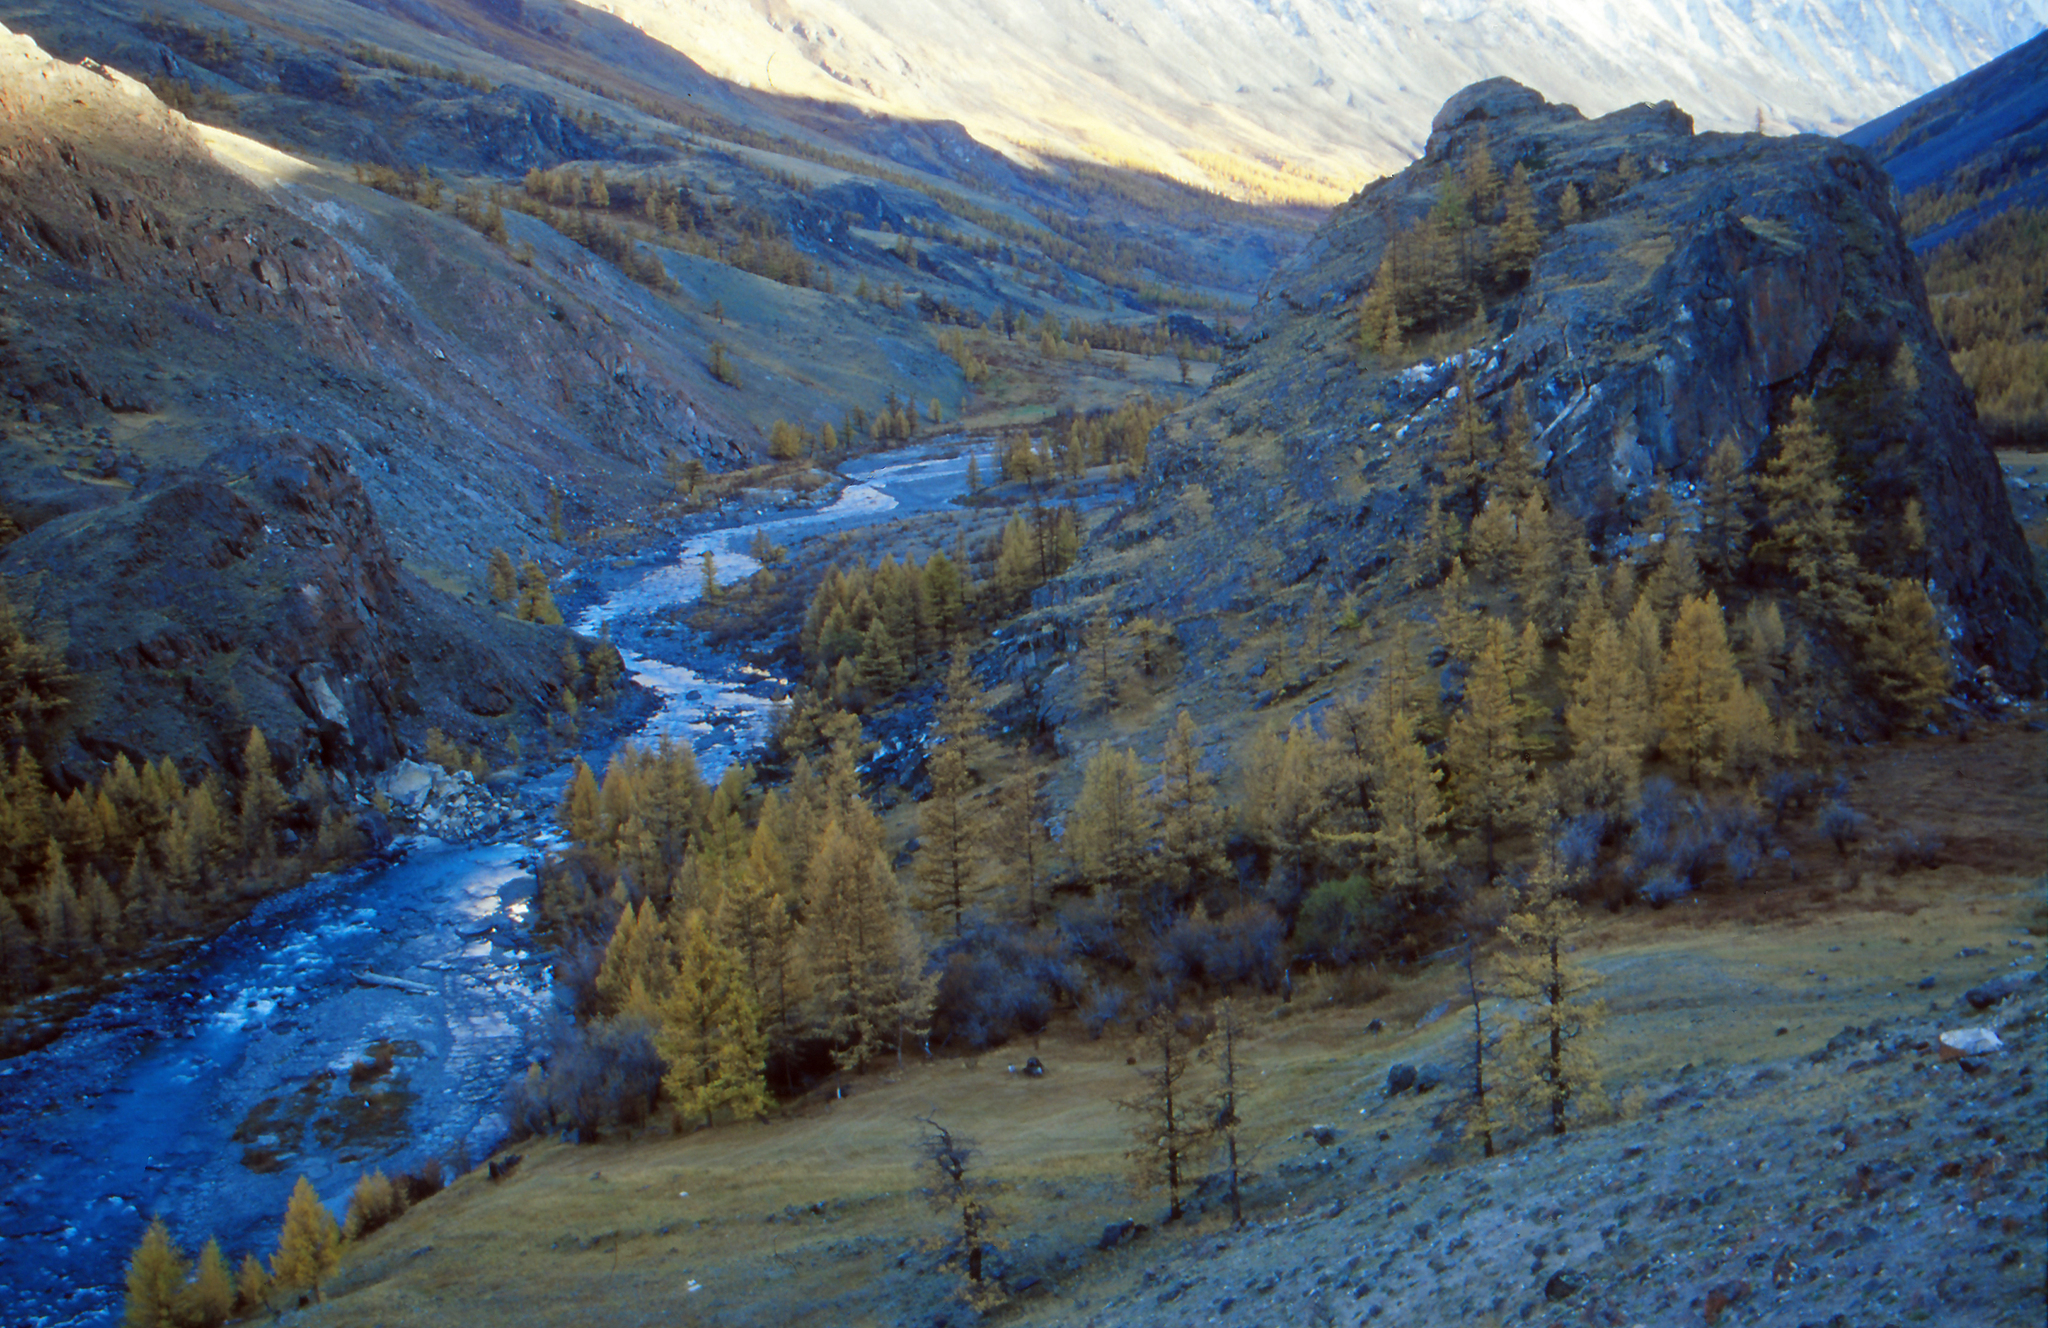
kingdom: Plantae
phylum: Tracheophyta
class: Pinopsida
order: Pinales
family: Pinaceae
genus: Larix
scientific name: Larix sibirica
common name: Siberian larch
